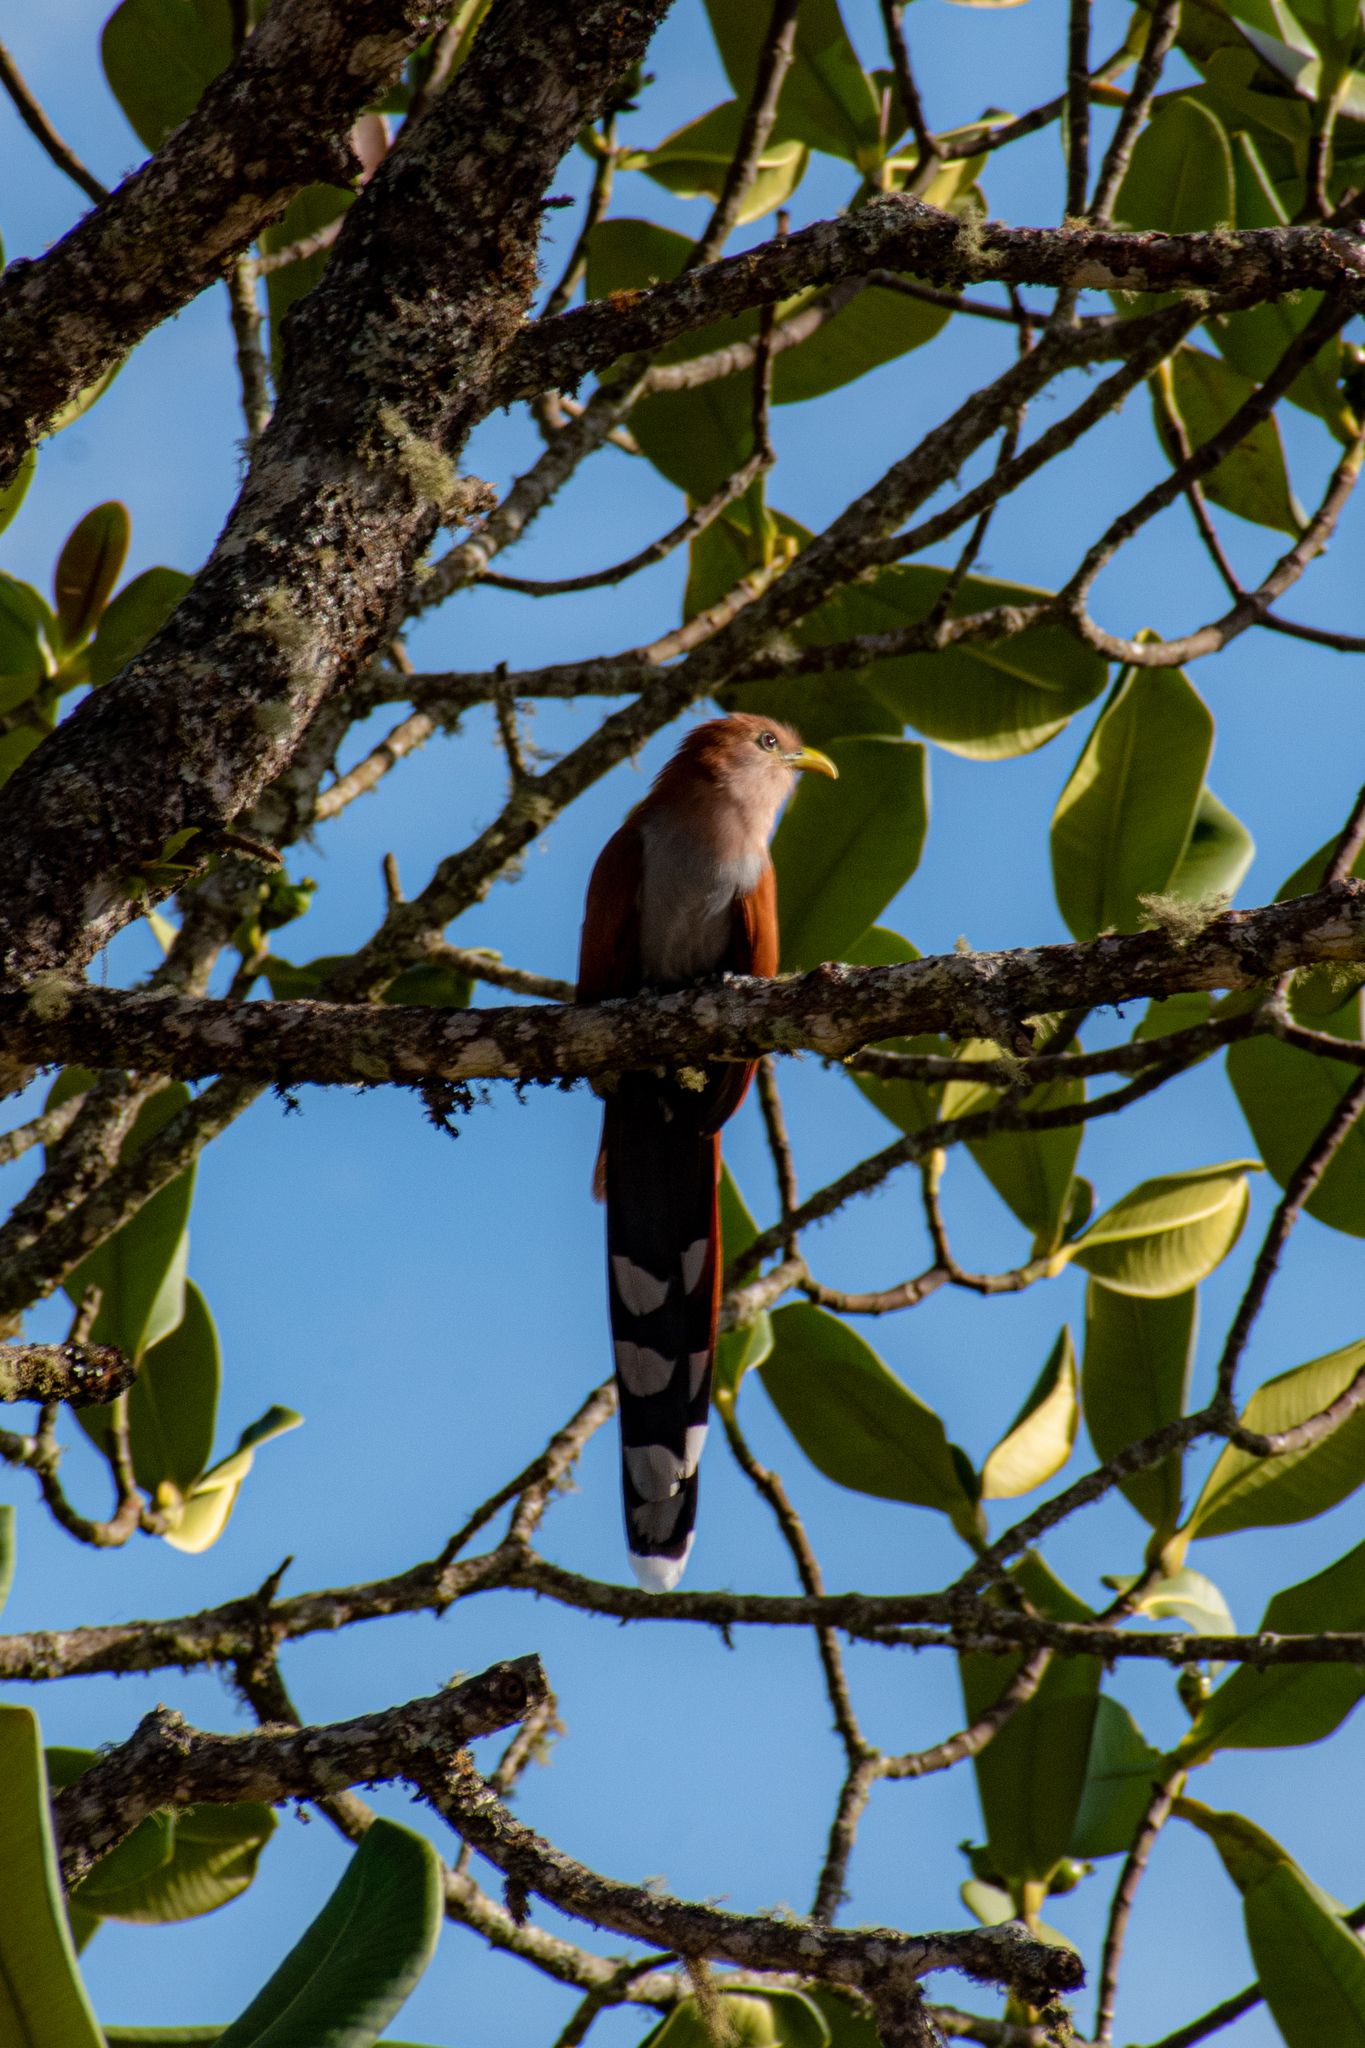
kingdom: Animalia
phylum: Chordata
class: Aves
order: Cuculiformes
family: Cuculidae
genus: Piaya
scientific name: Piaya cayana
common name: Squirrel cuckoo
